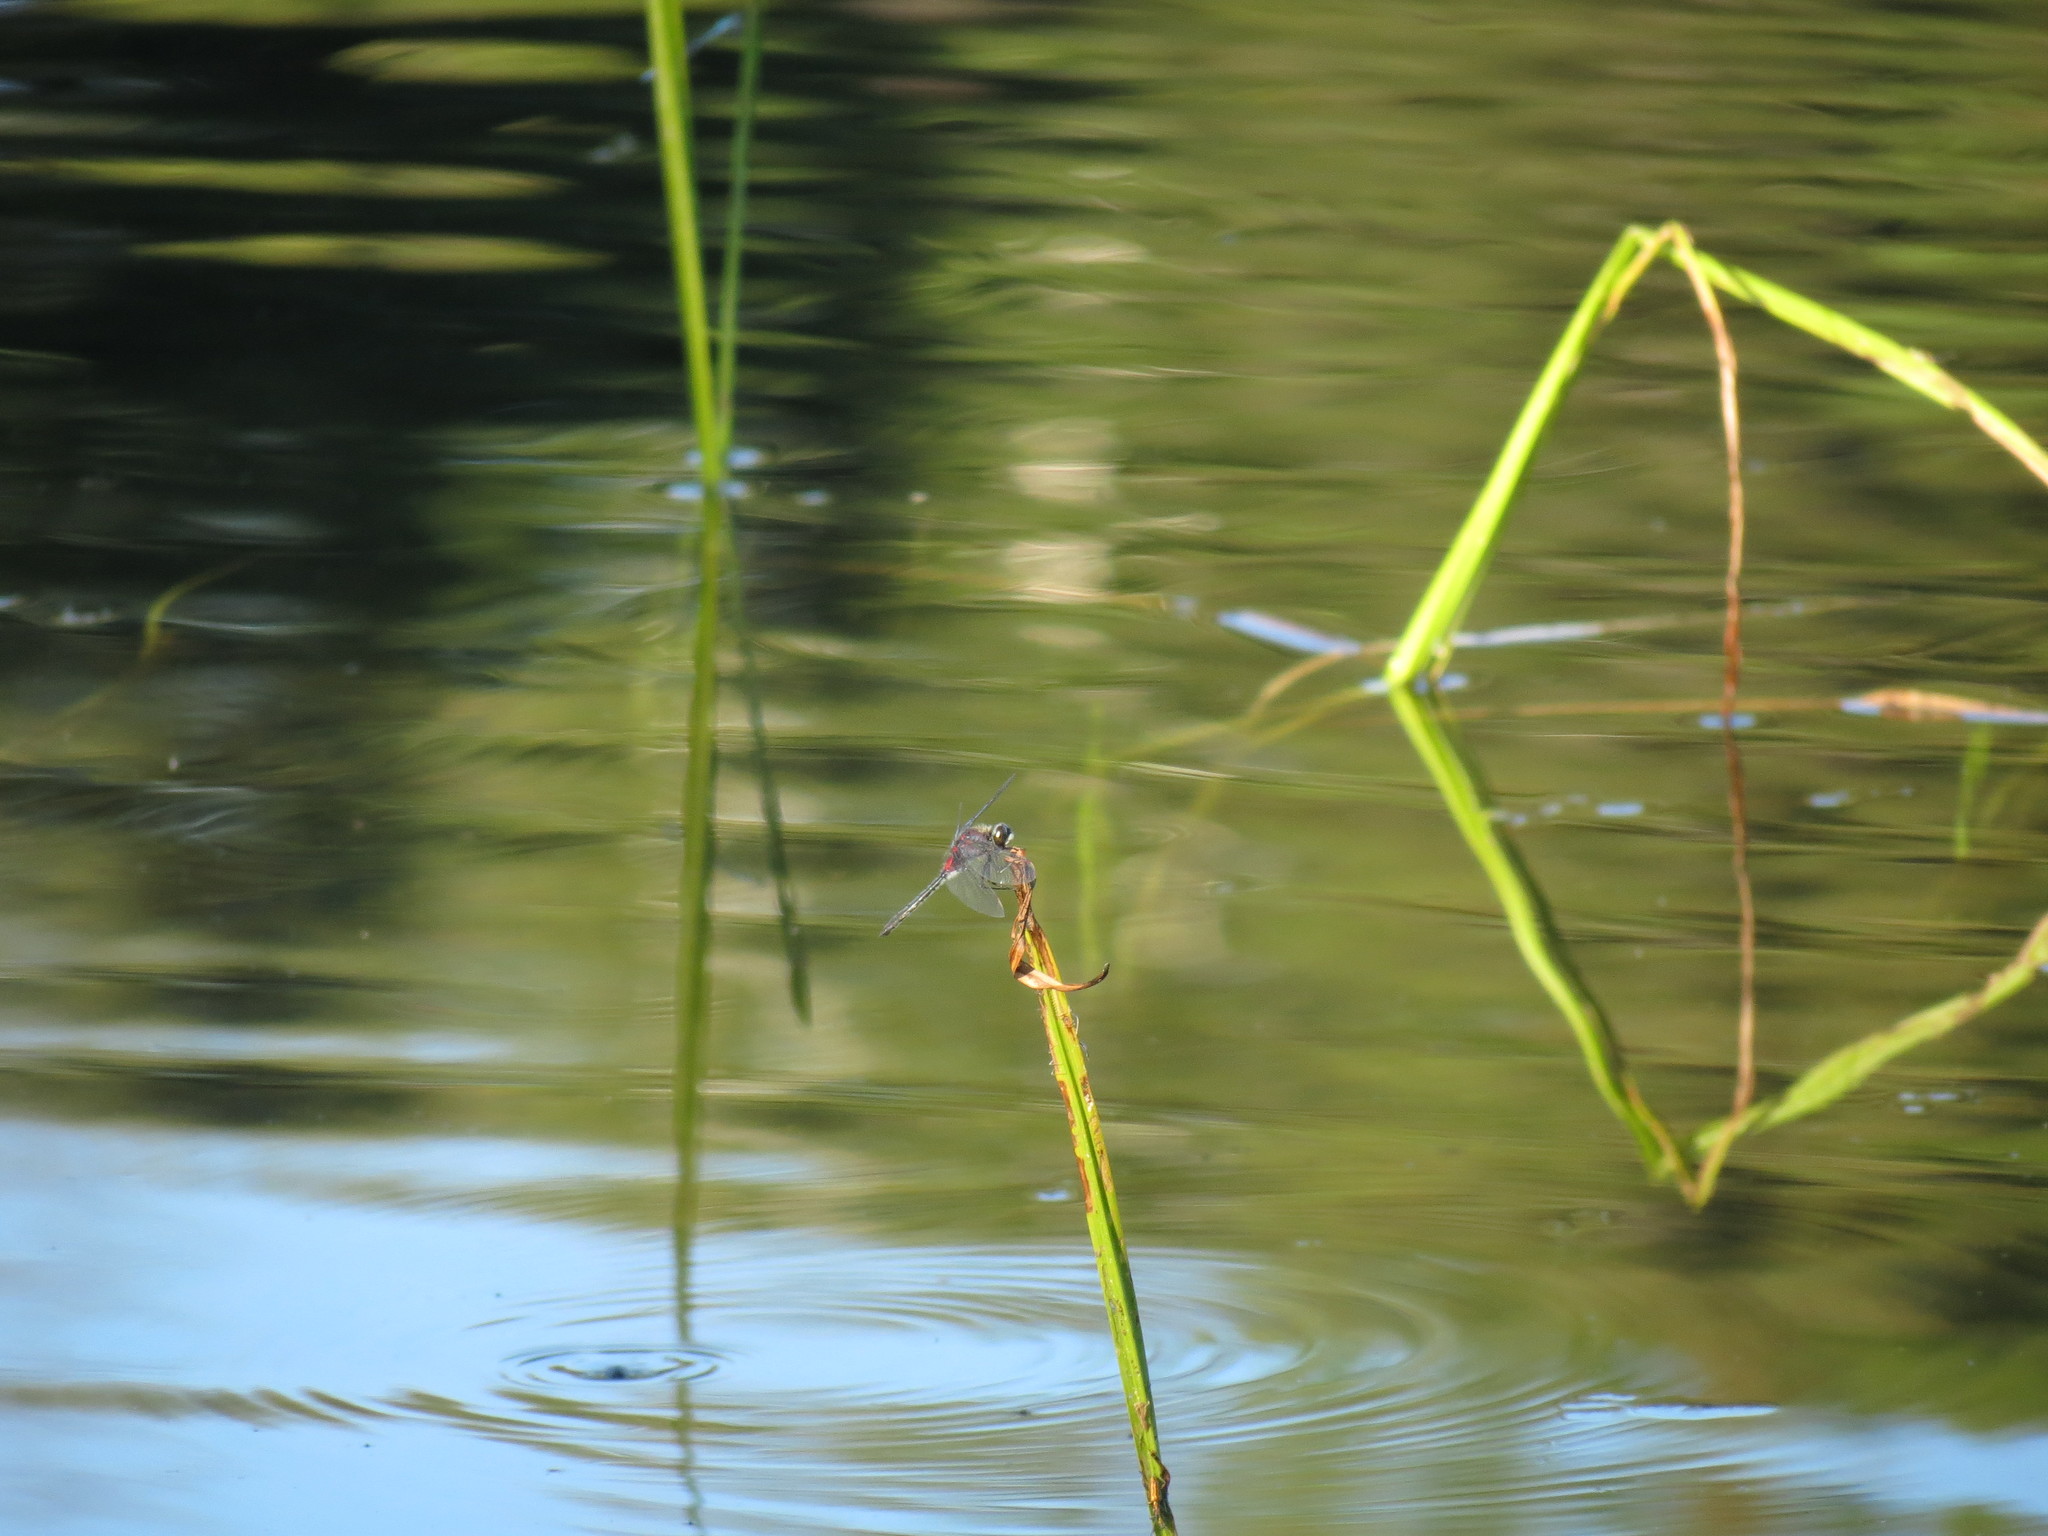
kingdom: Animalia
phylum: Arthropoda
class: Insecta
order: Odonata
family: Libellulidae
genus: Leucorrhinia
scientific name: Leucorrhinia glacialis
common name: Crimson-ringed whiteface
